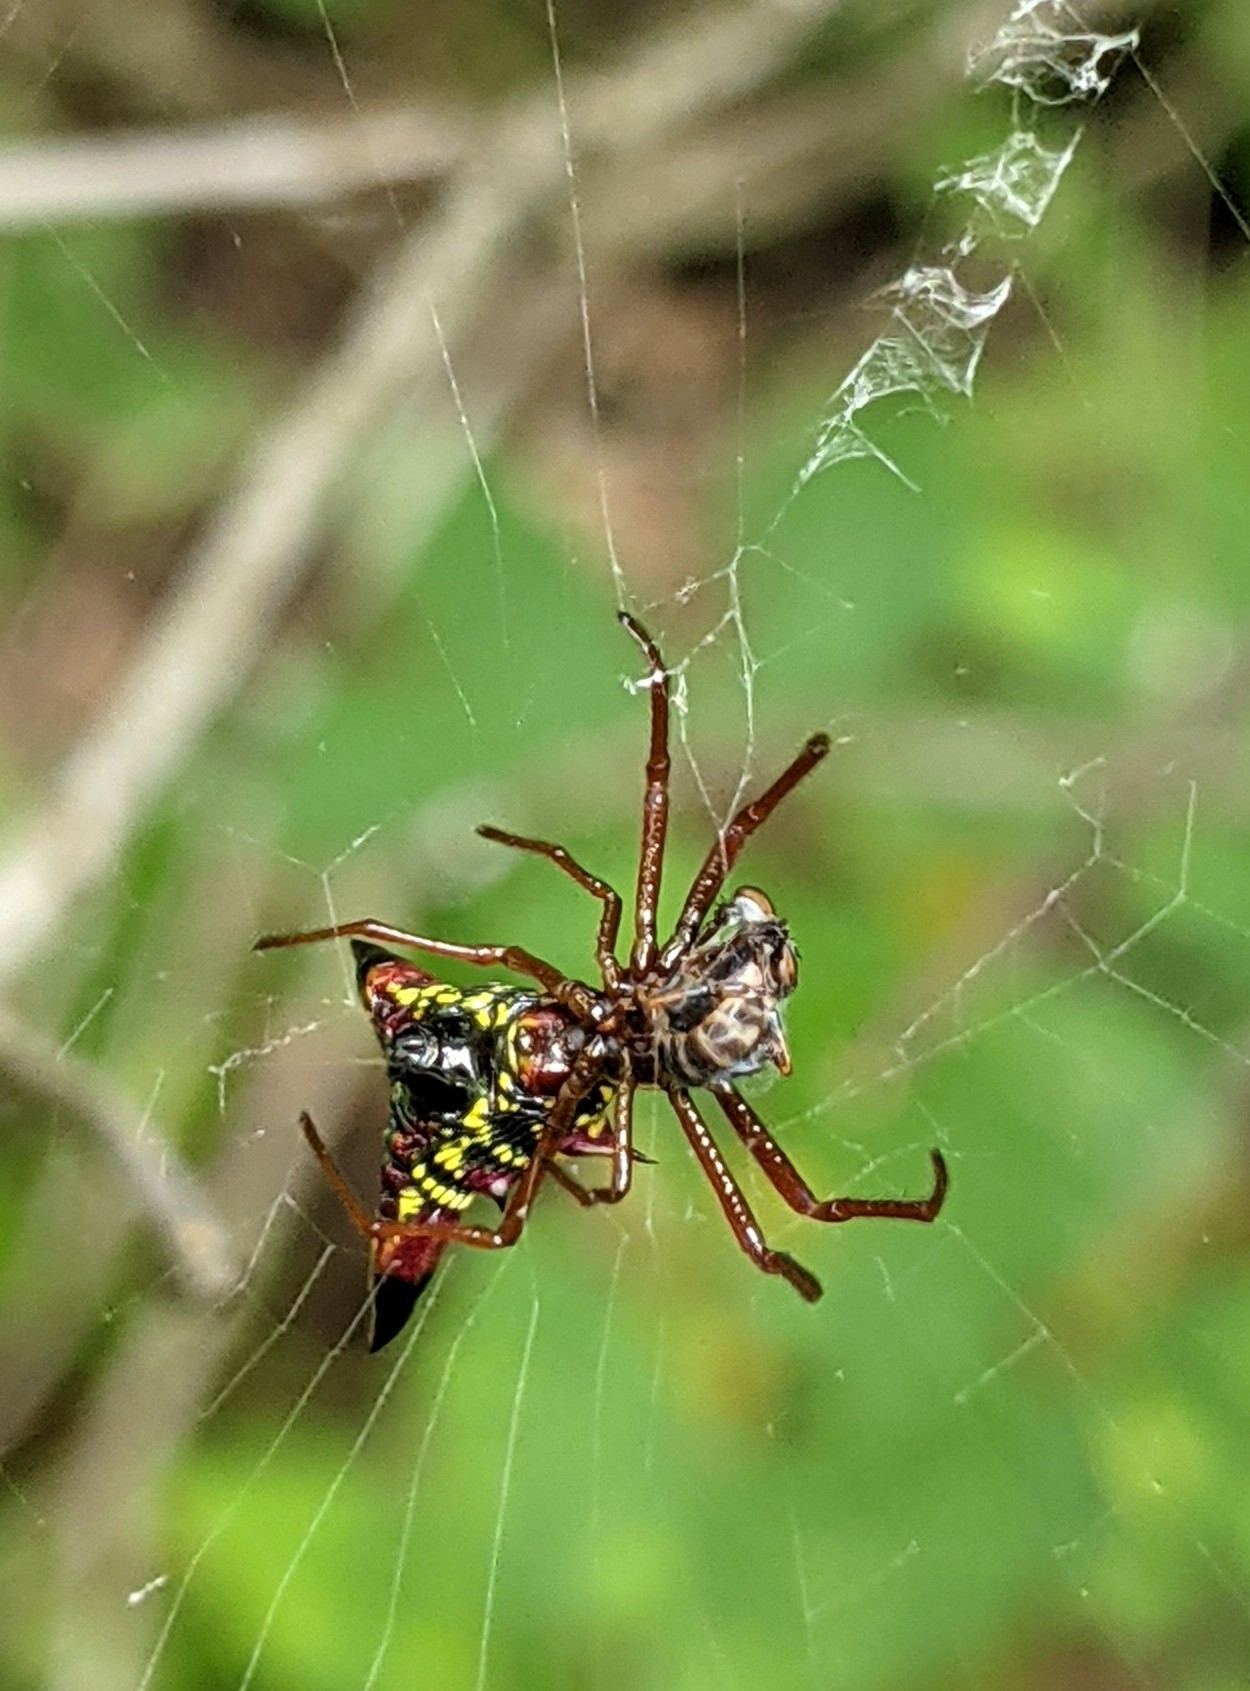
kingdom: Animalia
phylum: Arthropoda
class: Arachnida
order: Araneae
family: Araneidae
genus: Micrathena
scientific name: Micrathena sagittata
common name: Orb weavers
